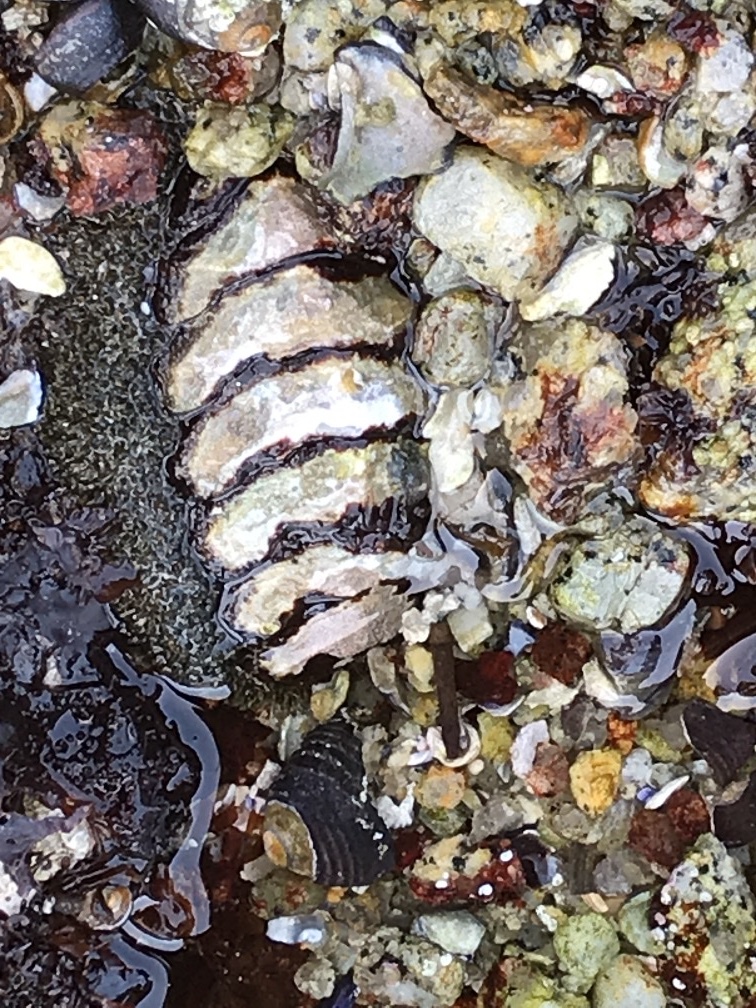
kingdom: Animalia
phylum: Mollusca
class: Polyplacophora
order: Chitonida
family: Mopaliidae
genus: Mopalia
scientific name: Mopalia muscosa
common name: Mossy chiton
